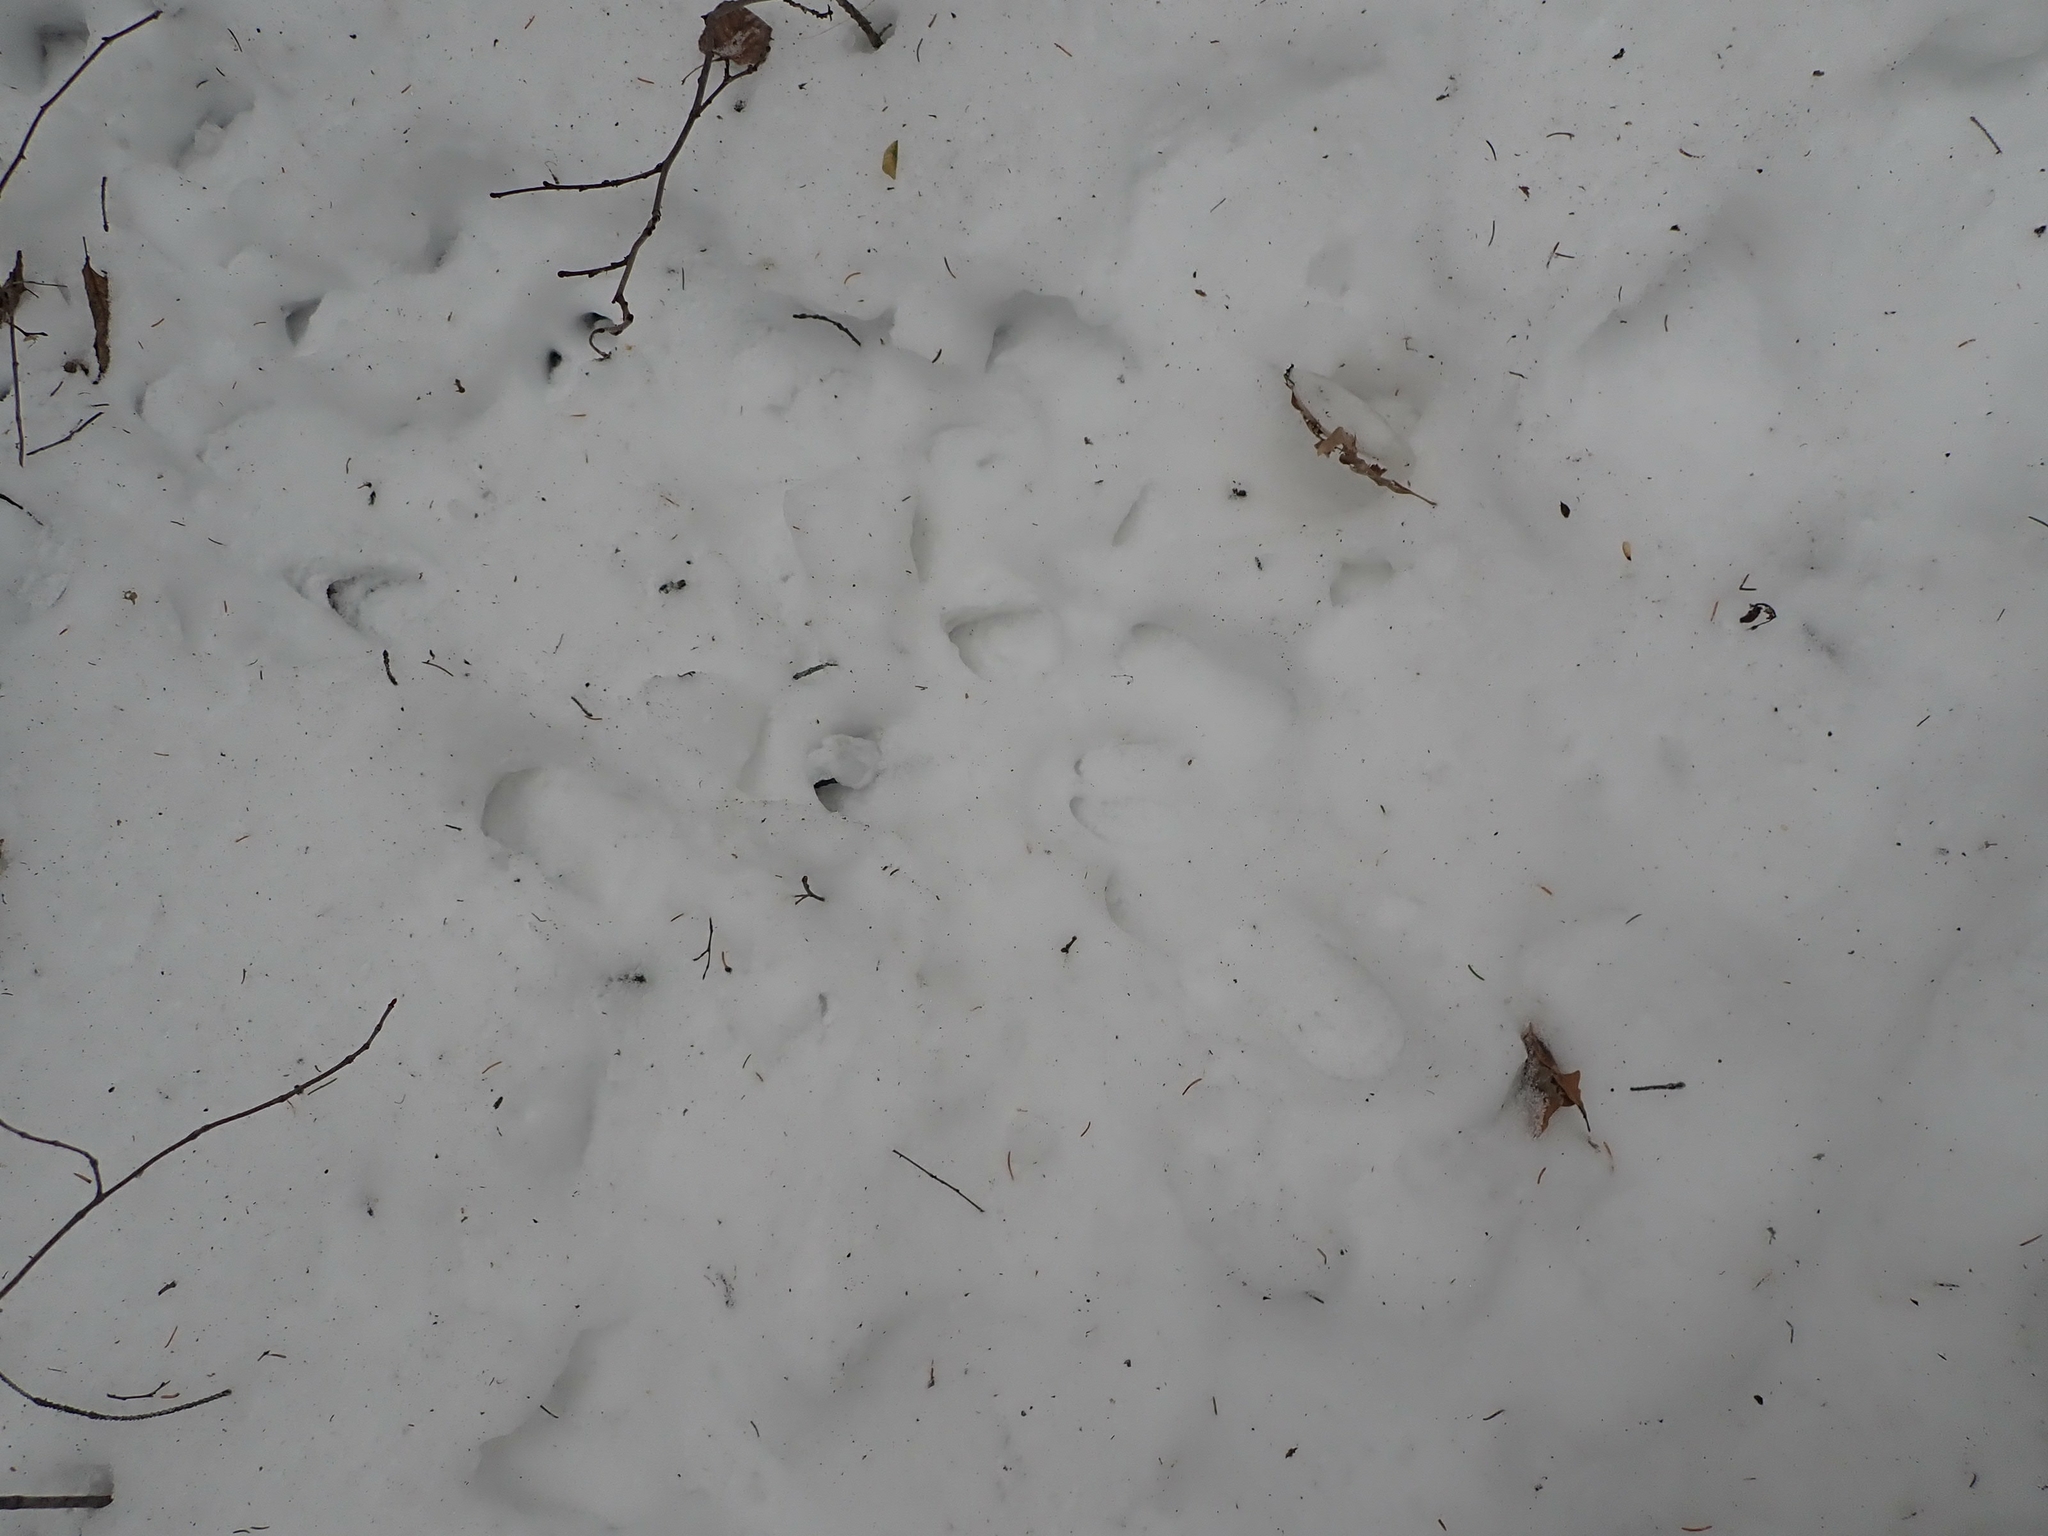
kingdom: Animalia
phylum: Chordata
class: Mammalia
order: Artiodactyla
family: Cervidae
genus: Odocoileus
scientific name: Odocoileus virginianus
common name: White-tailed deer
